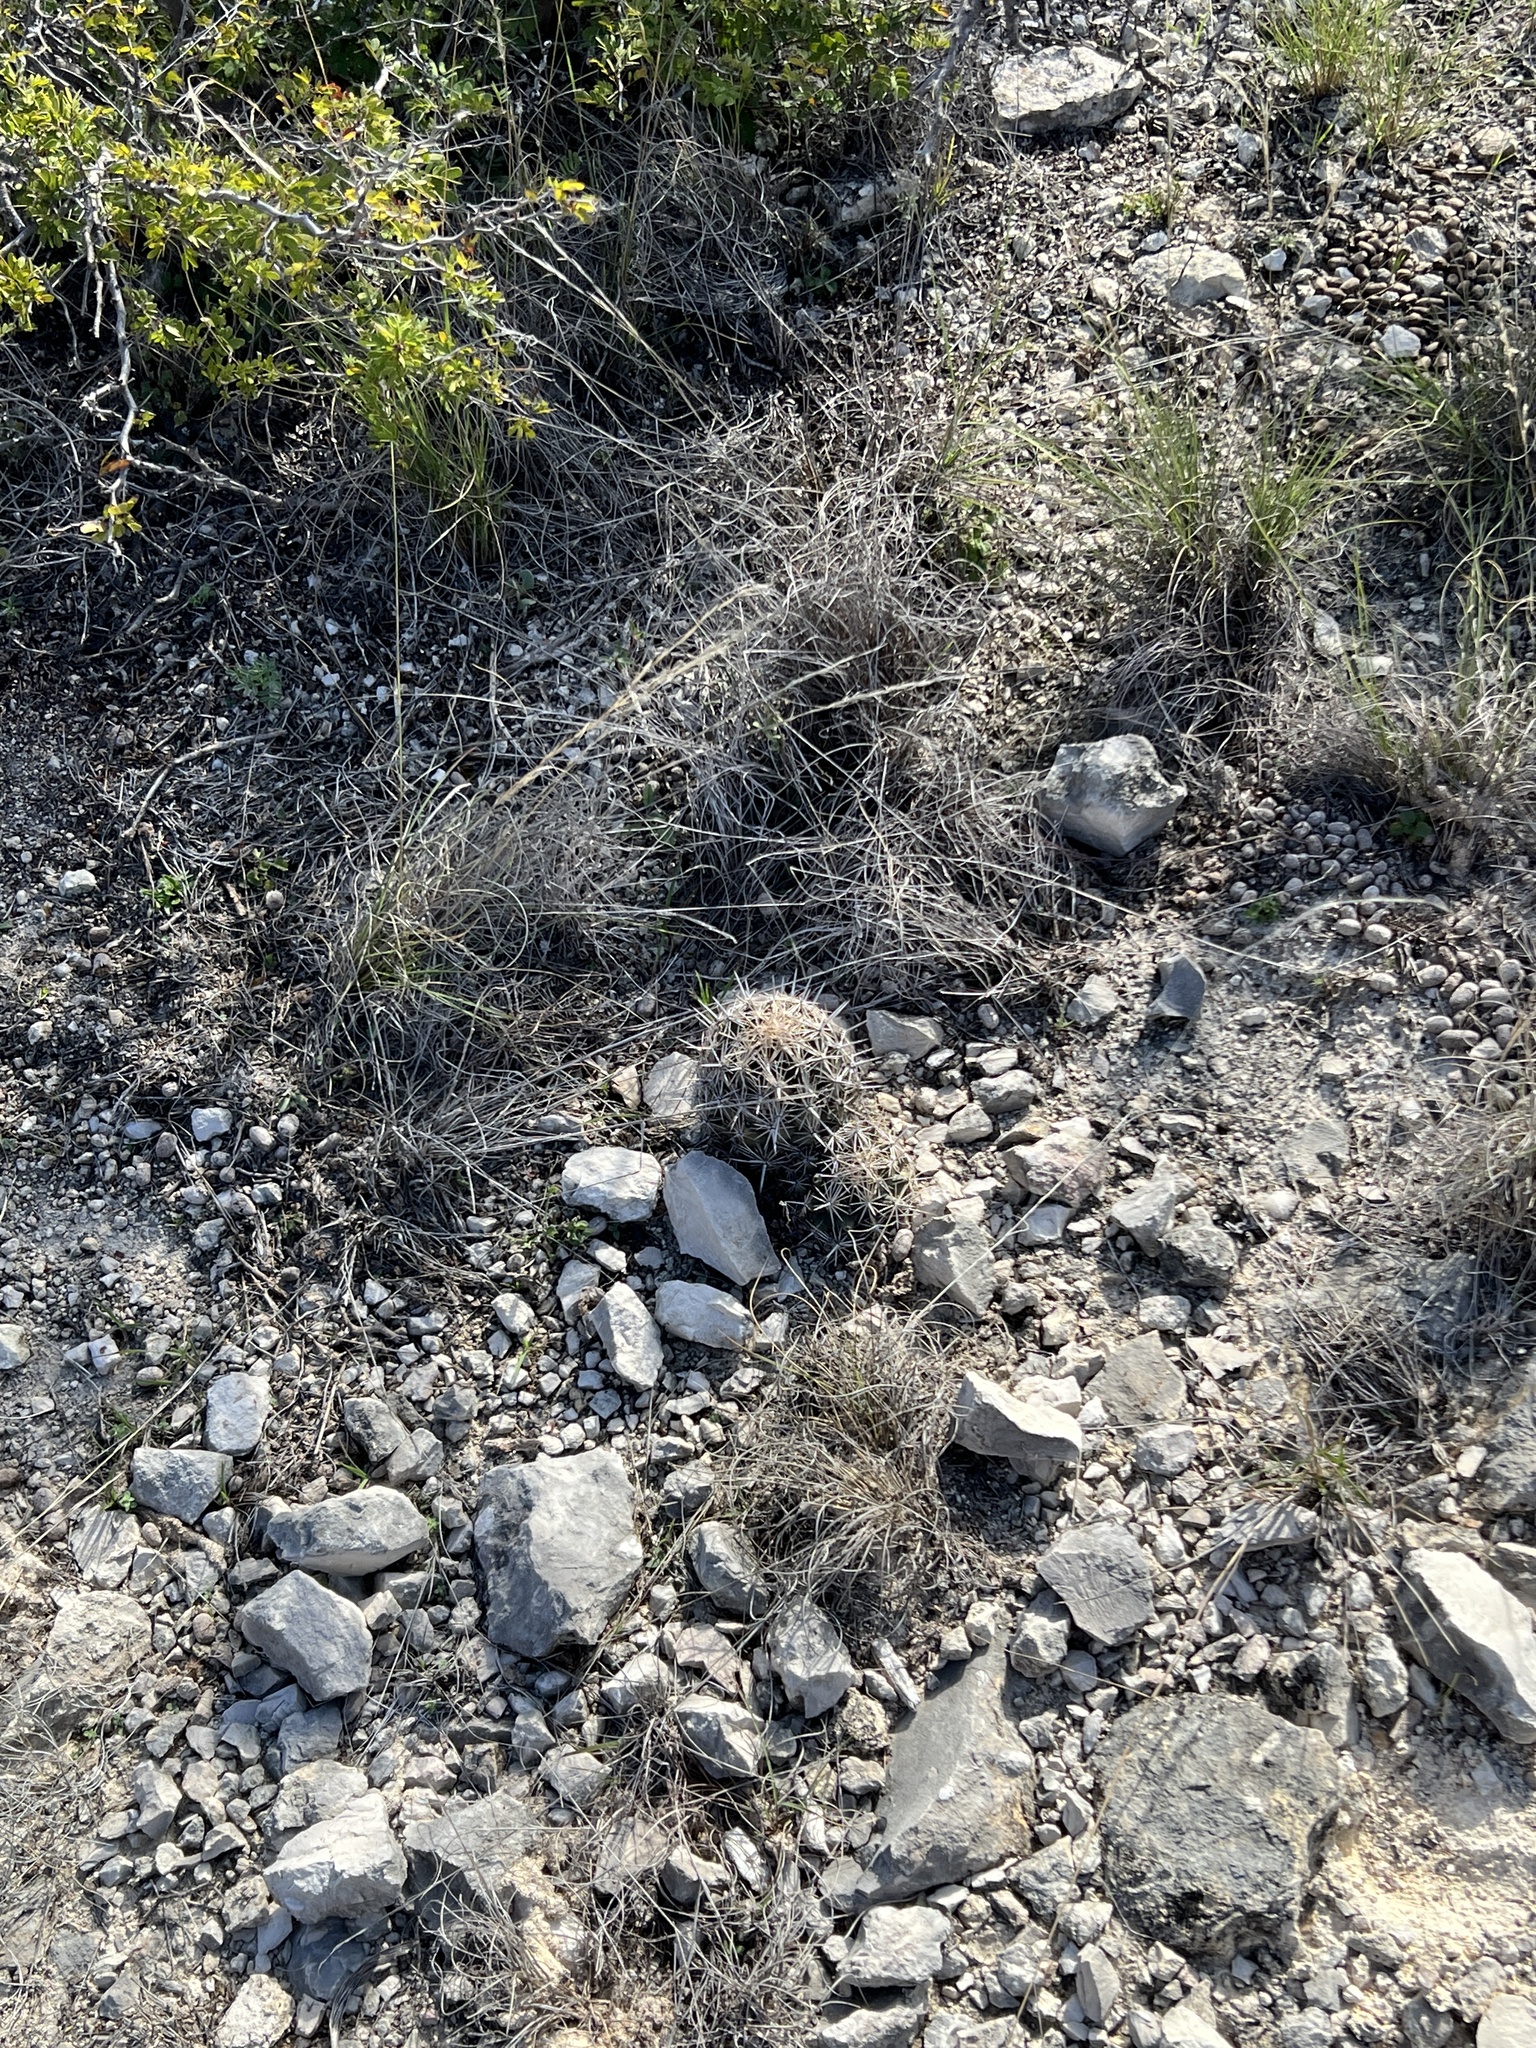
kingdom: Plantae
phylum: Tracheophyta
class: Magnoliopsida
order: Caryophyllales
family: Cactaceae
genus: Coryphantha
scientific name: Coryphantha echinus
